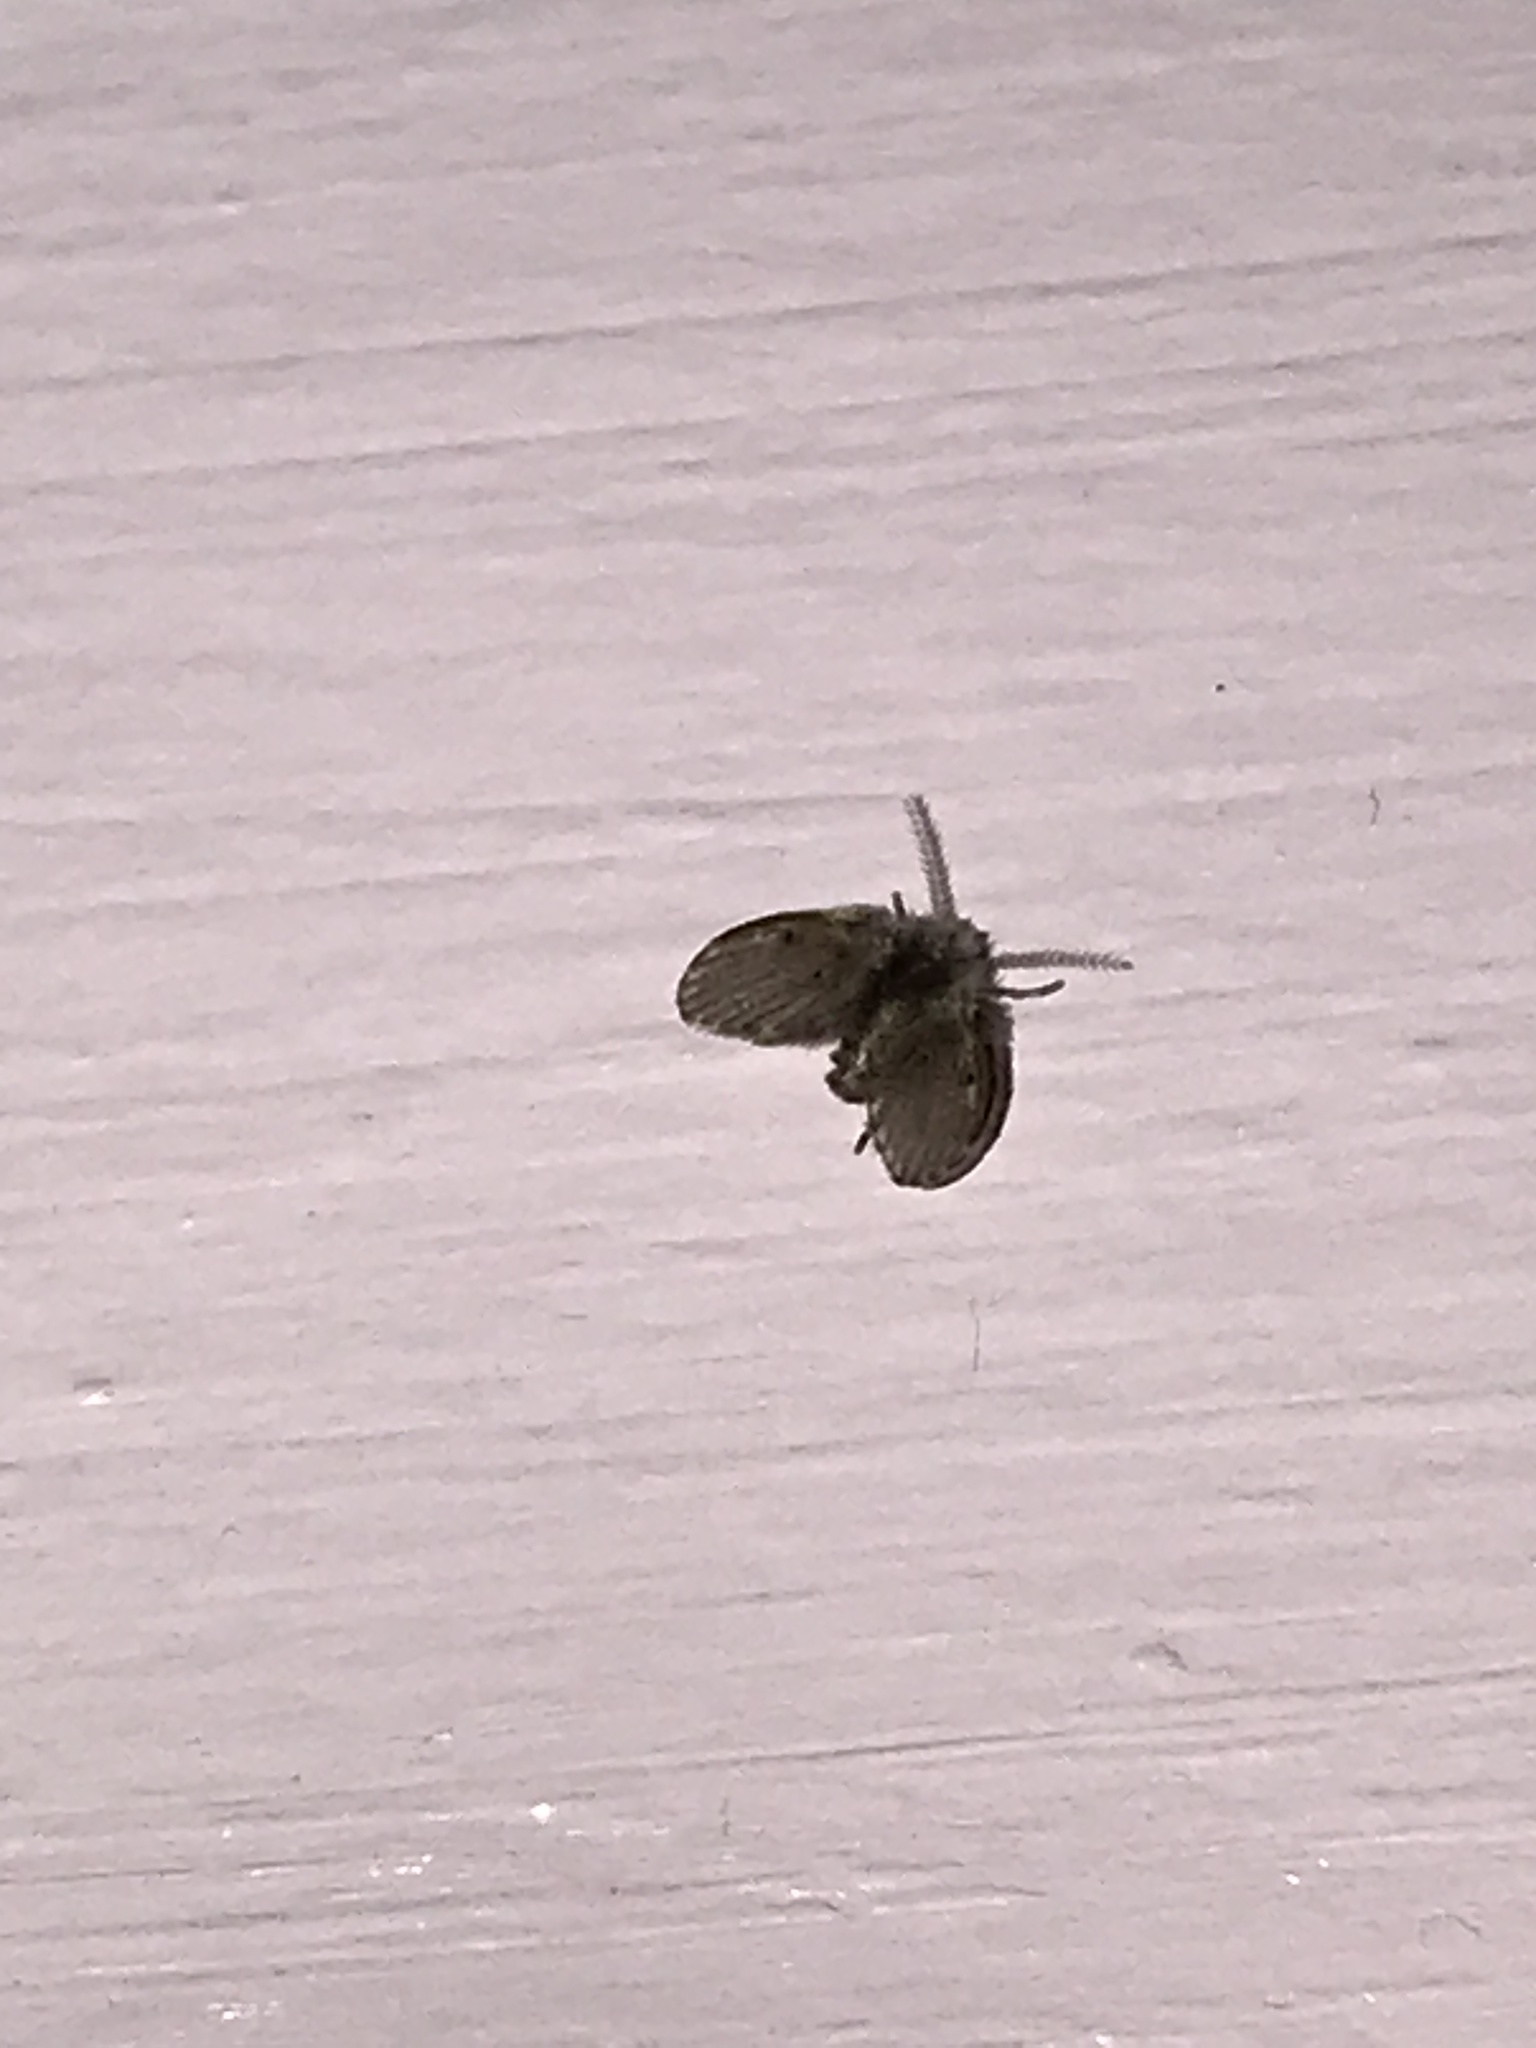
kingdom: Animalia
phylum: Arthropoda
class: Insecta
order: Diptera
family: Psychodidae
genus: Clogmia
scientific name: Clogmia albipunctatus
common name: White-spotted moth fly
